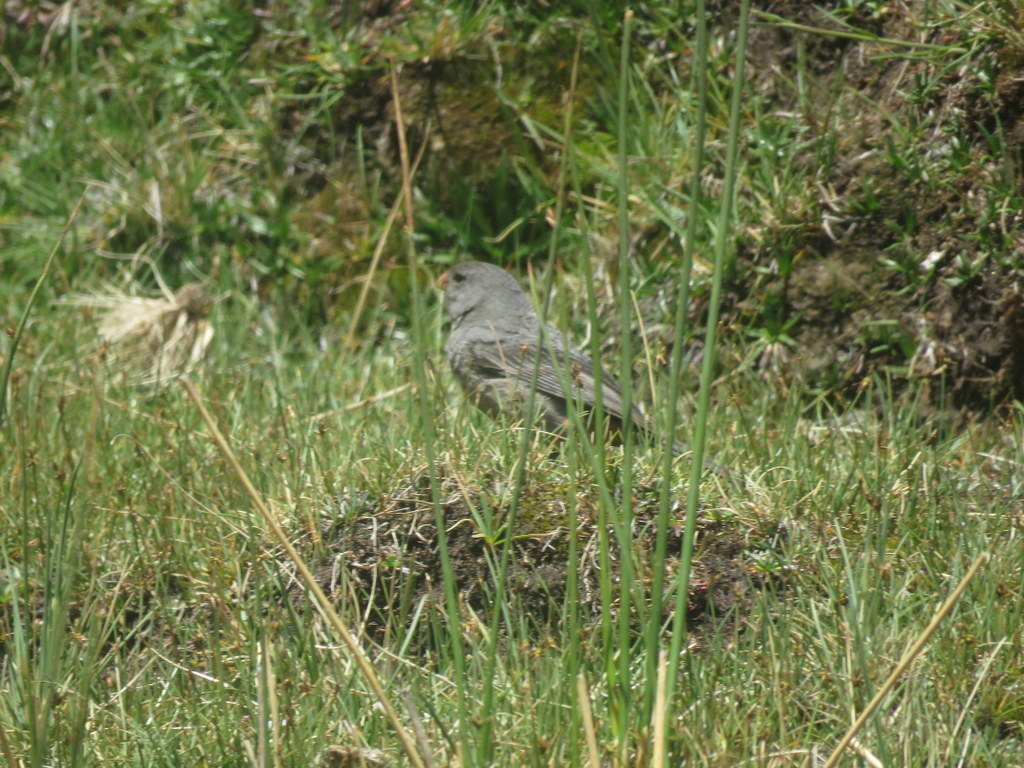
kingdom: Animalia
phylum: Chordata
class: Aves
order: Passeriformes
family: Thraupidae
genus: Catamenia
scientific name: Catamenia inornata
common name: Plain-colored seedeater
